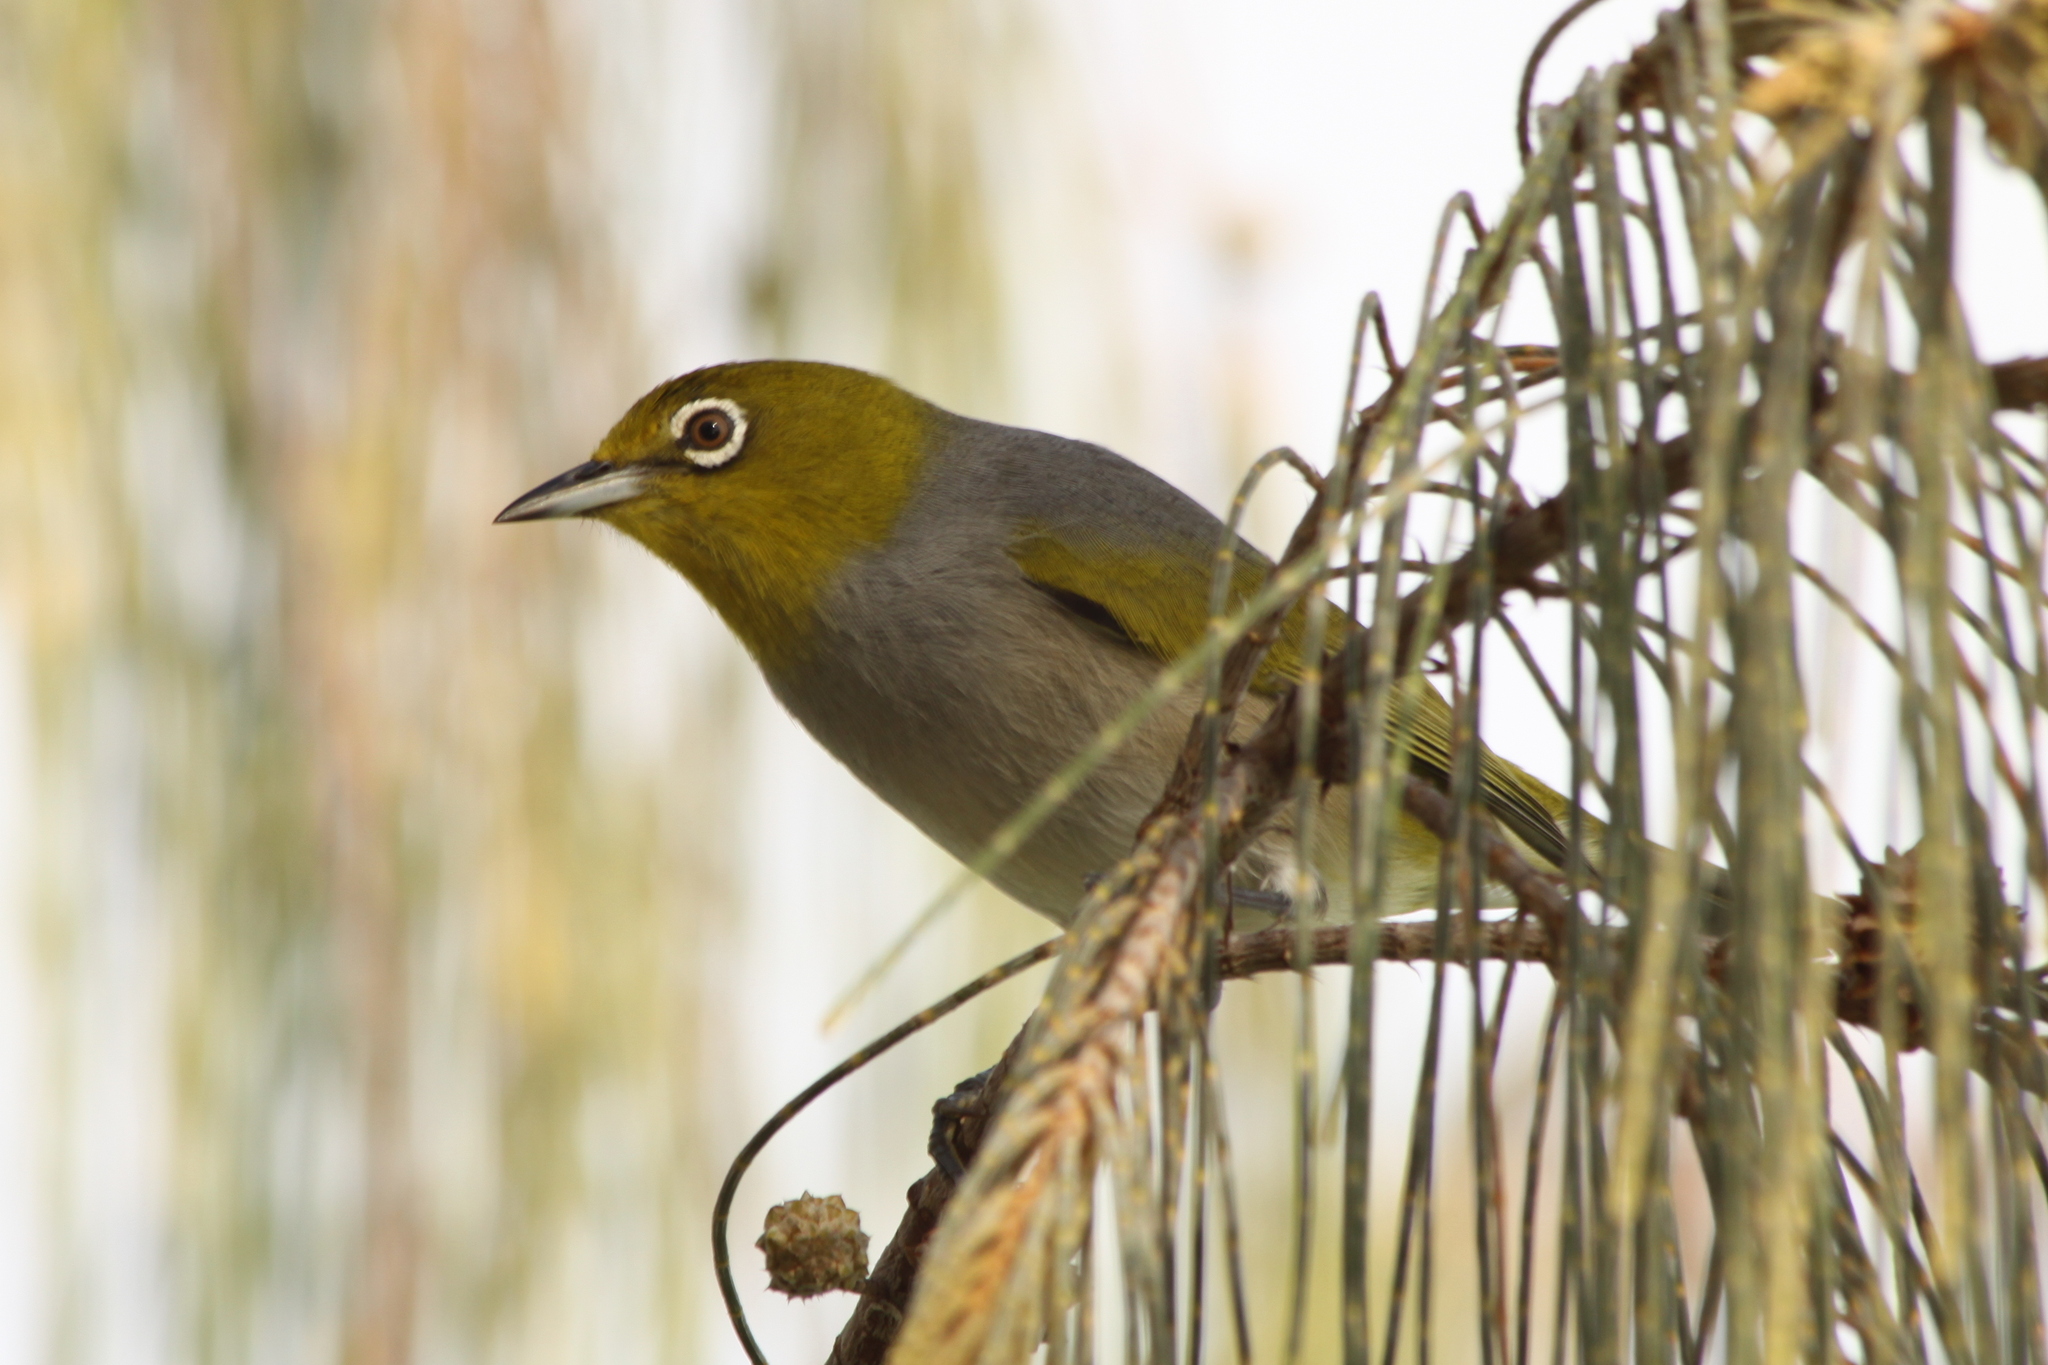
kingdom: Animalia
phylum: Chordata
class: Aves
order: Passeriformes
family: Zosteropidae
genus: Zosterops
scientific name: Zosterops lateralis
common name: Silvereye
